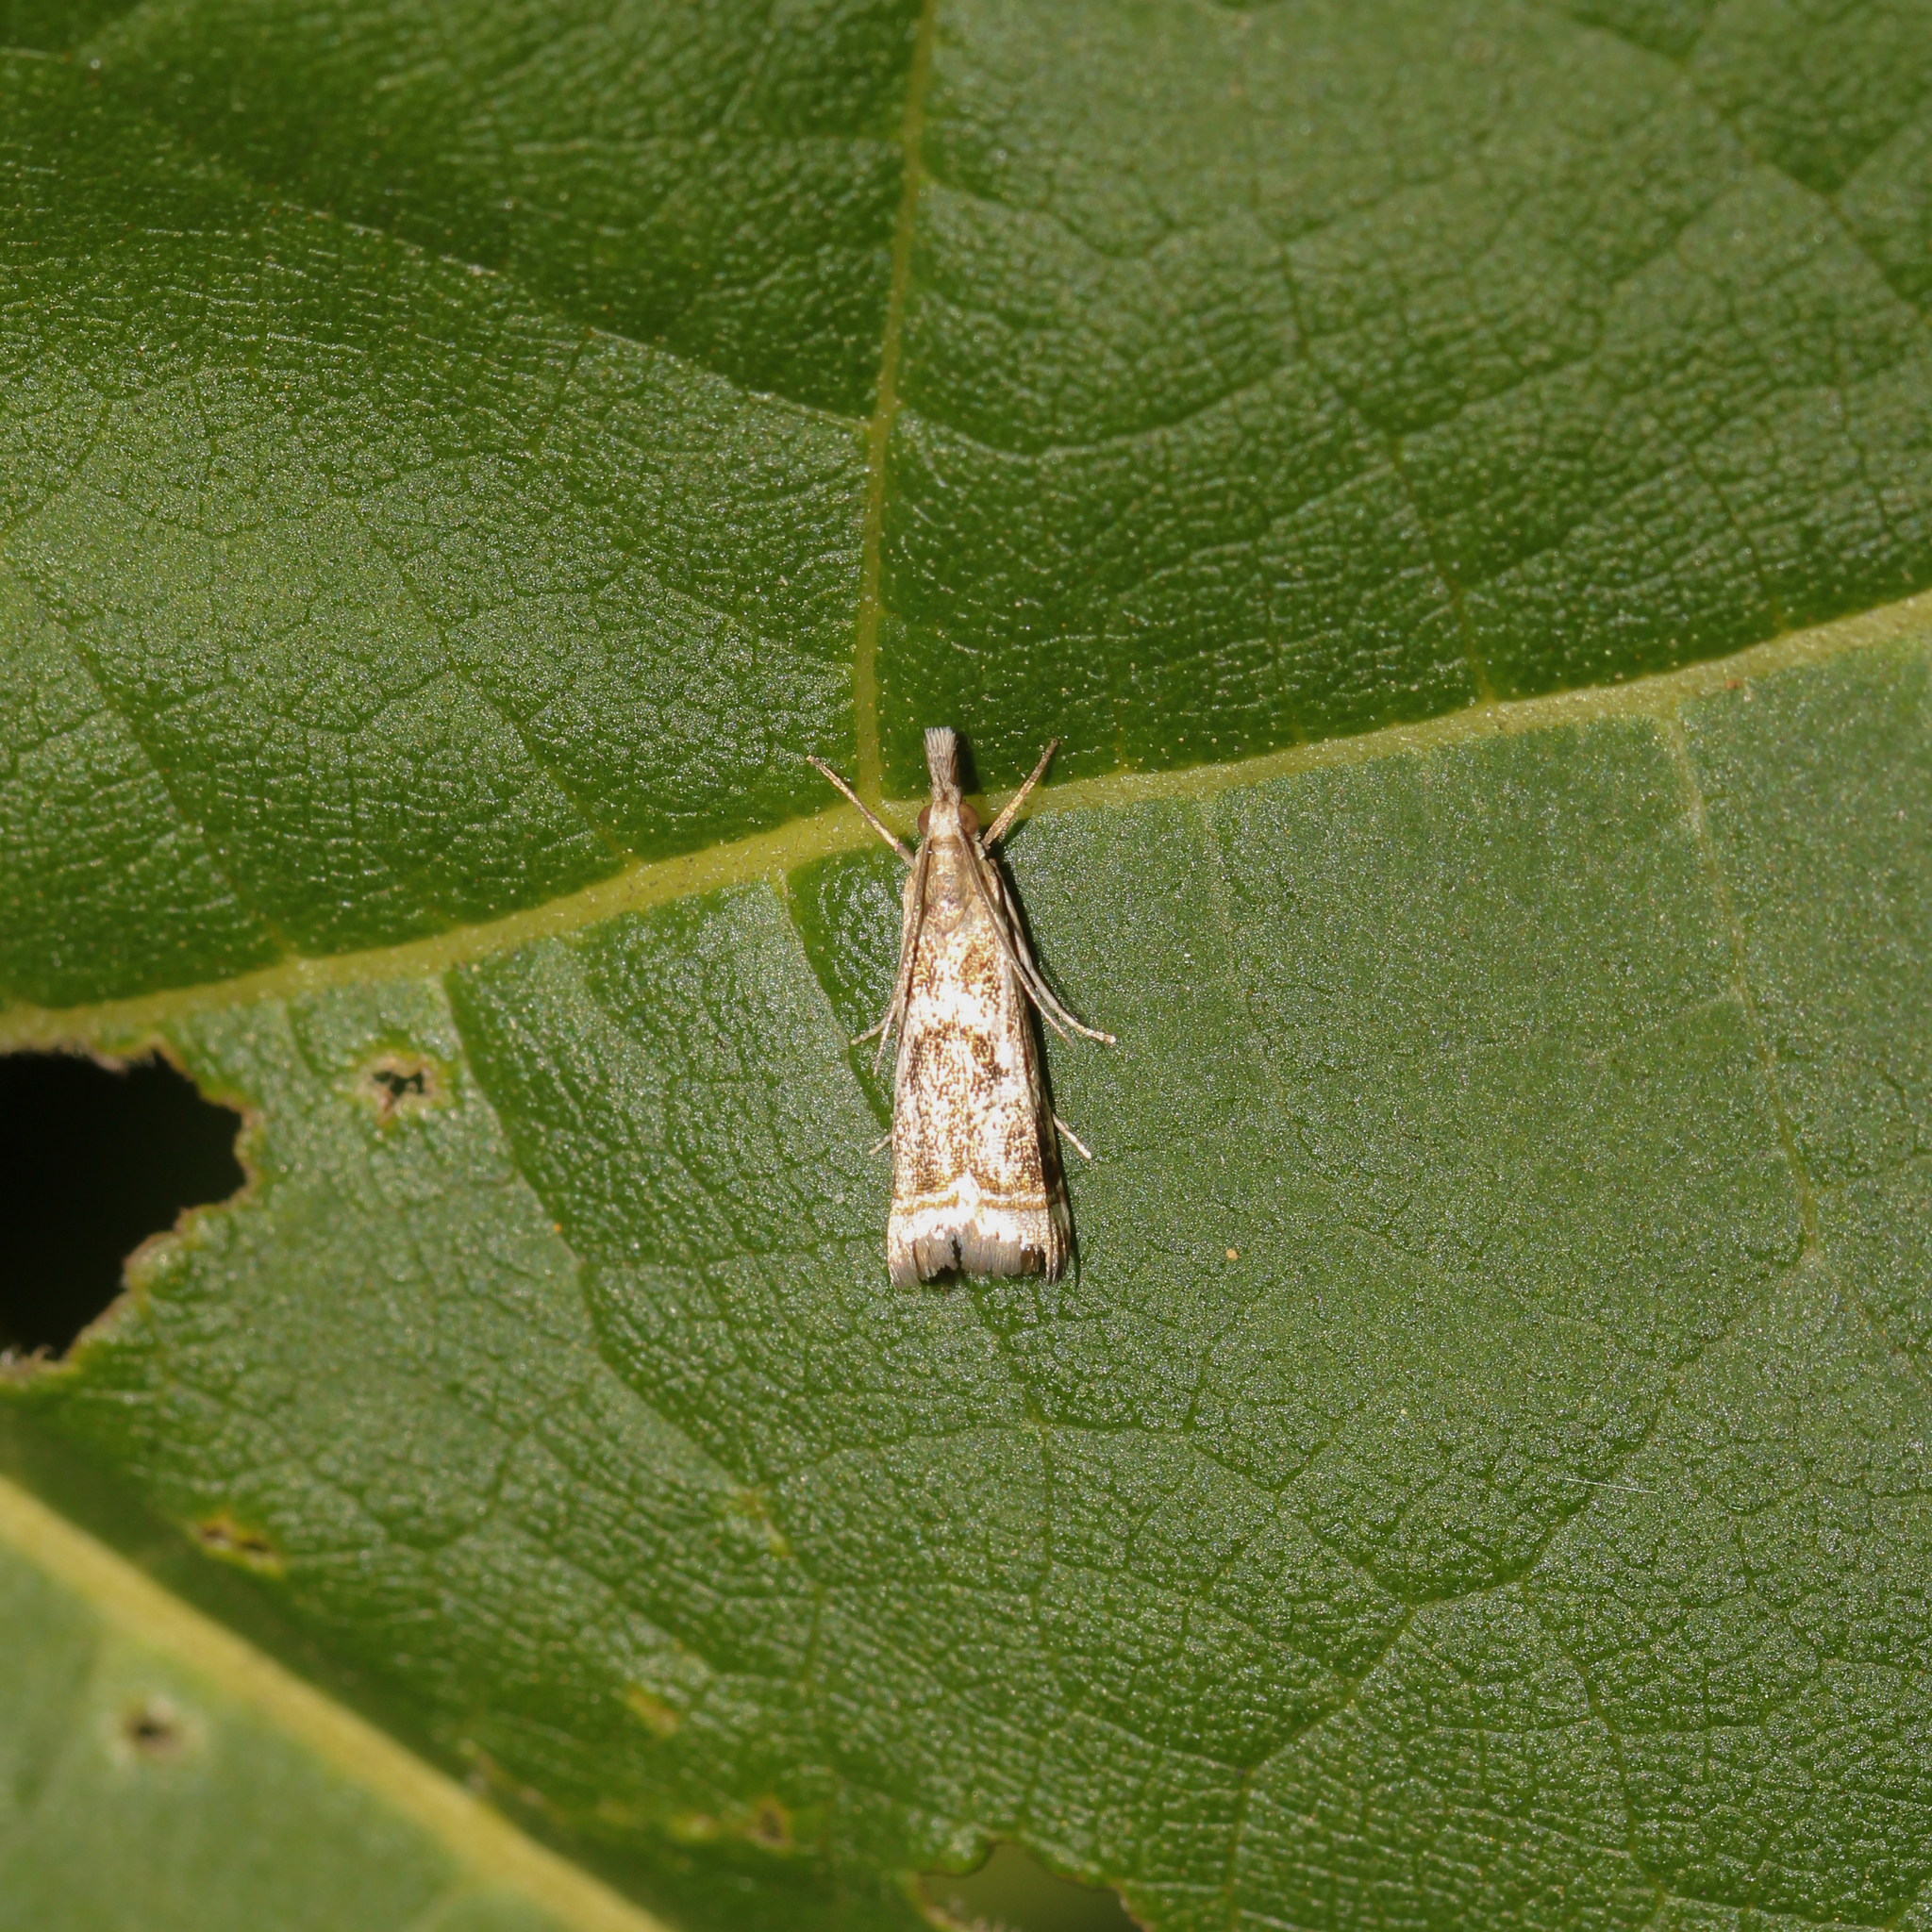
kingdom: Animalia
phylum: Arthropoda
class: Insecta
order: Lepidoptera
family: Crambidae
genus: Microcrambus
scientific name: Microcrambus elegans
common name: Elegant grass-veneer
